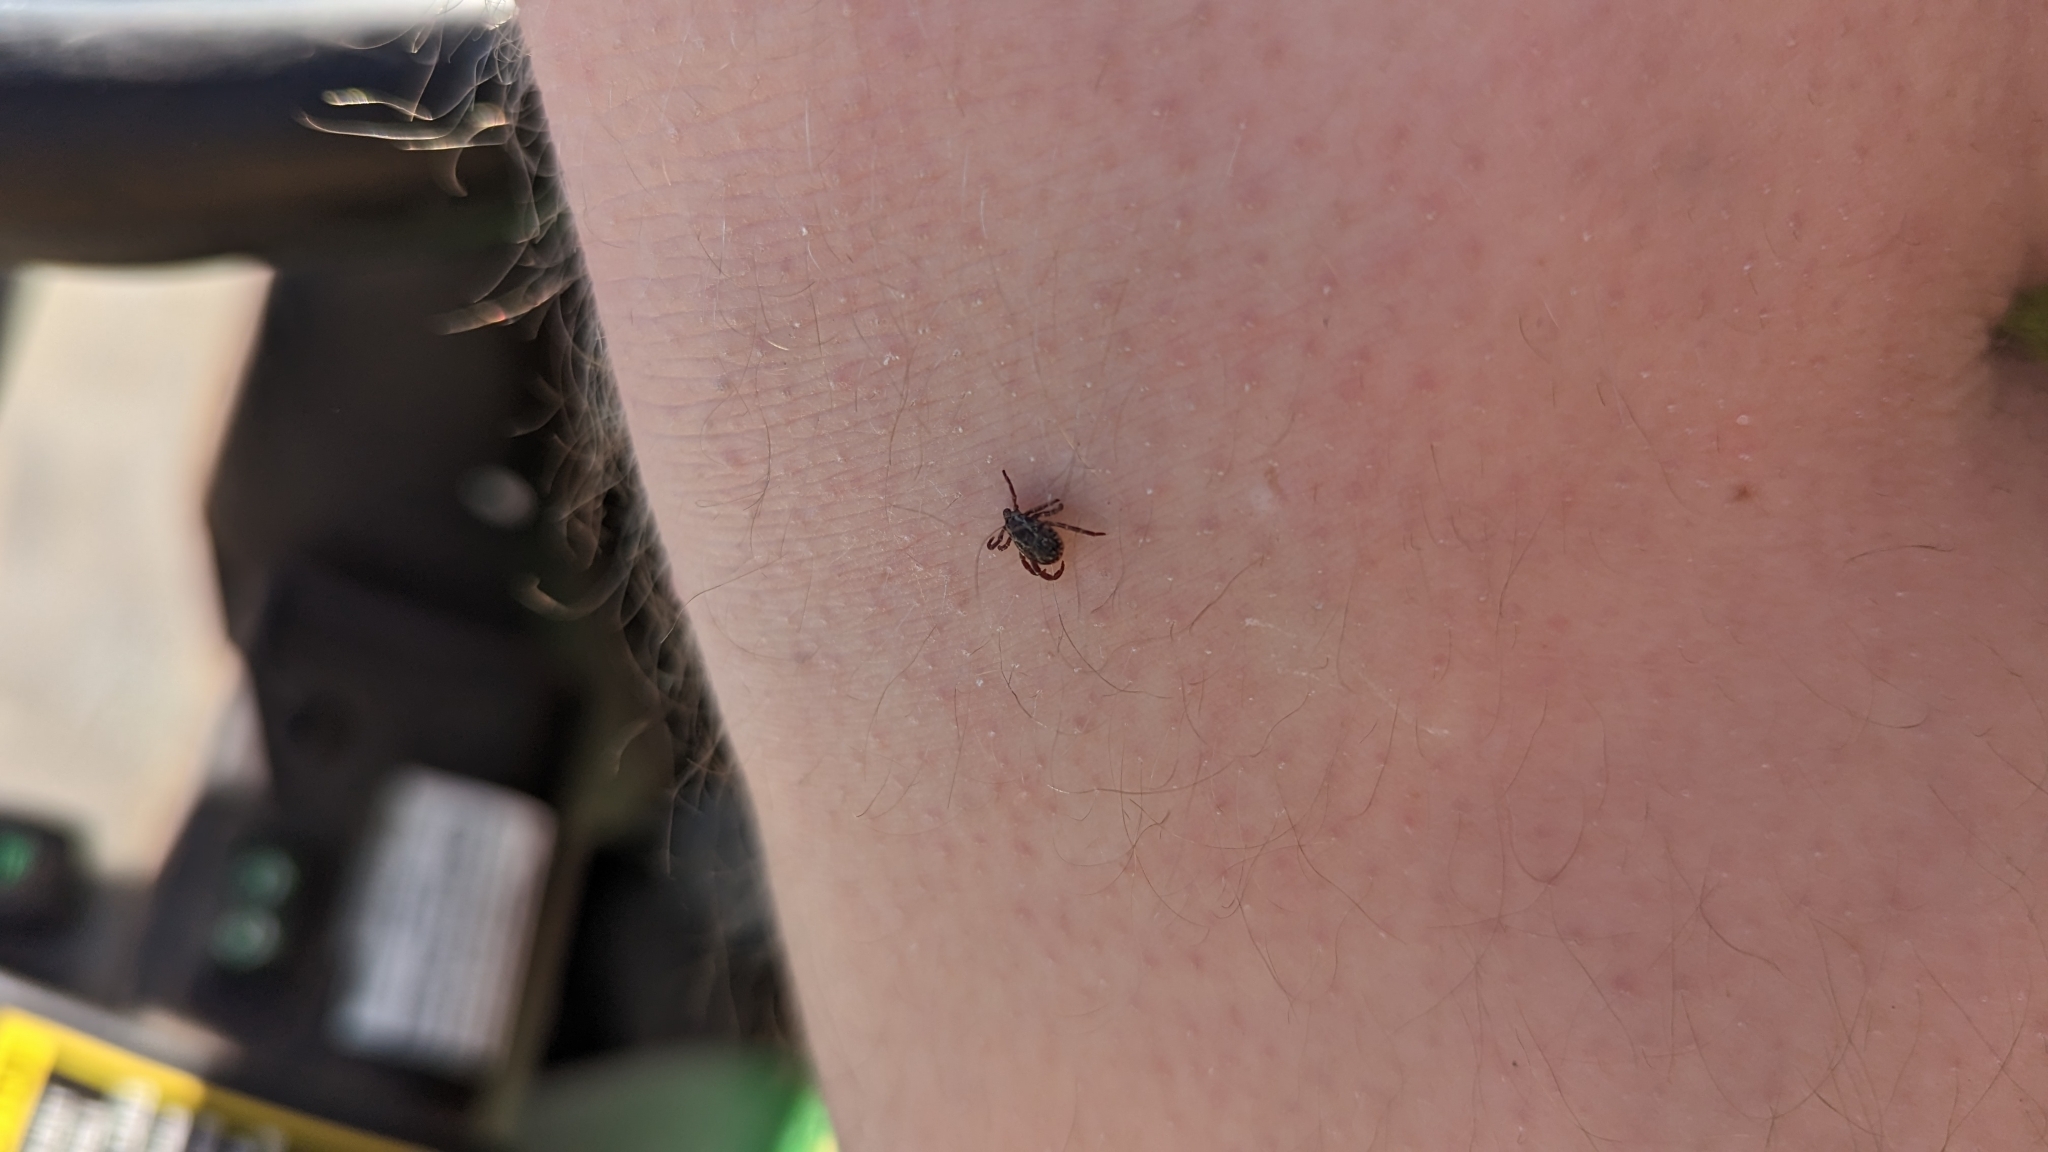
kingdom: Animalia
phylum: Arthropoda
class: Arachnida
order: Ixodida
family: Ixodidae
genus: Dermacentor
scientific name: Dermacentor variabilis
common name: American dog tick
